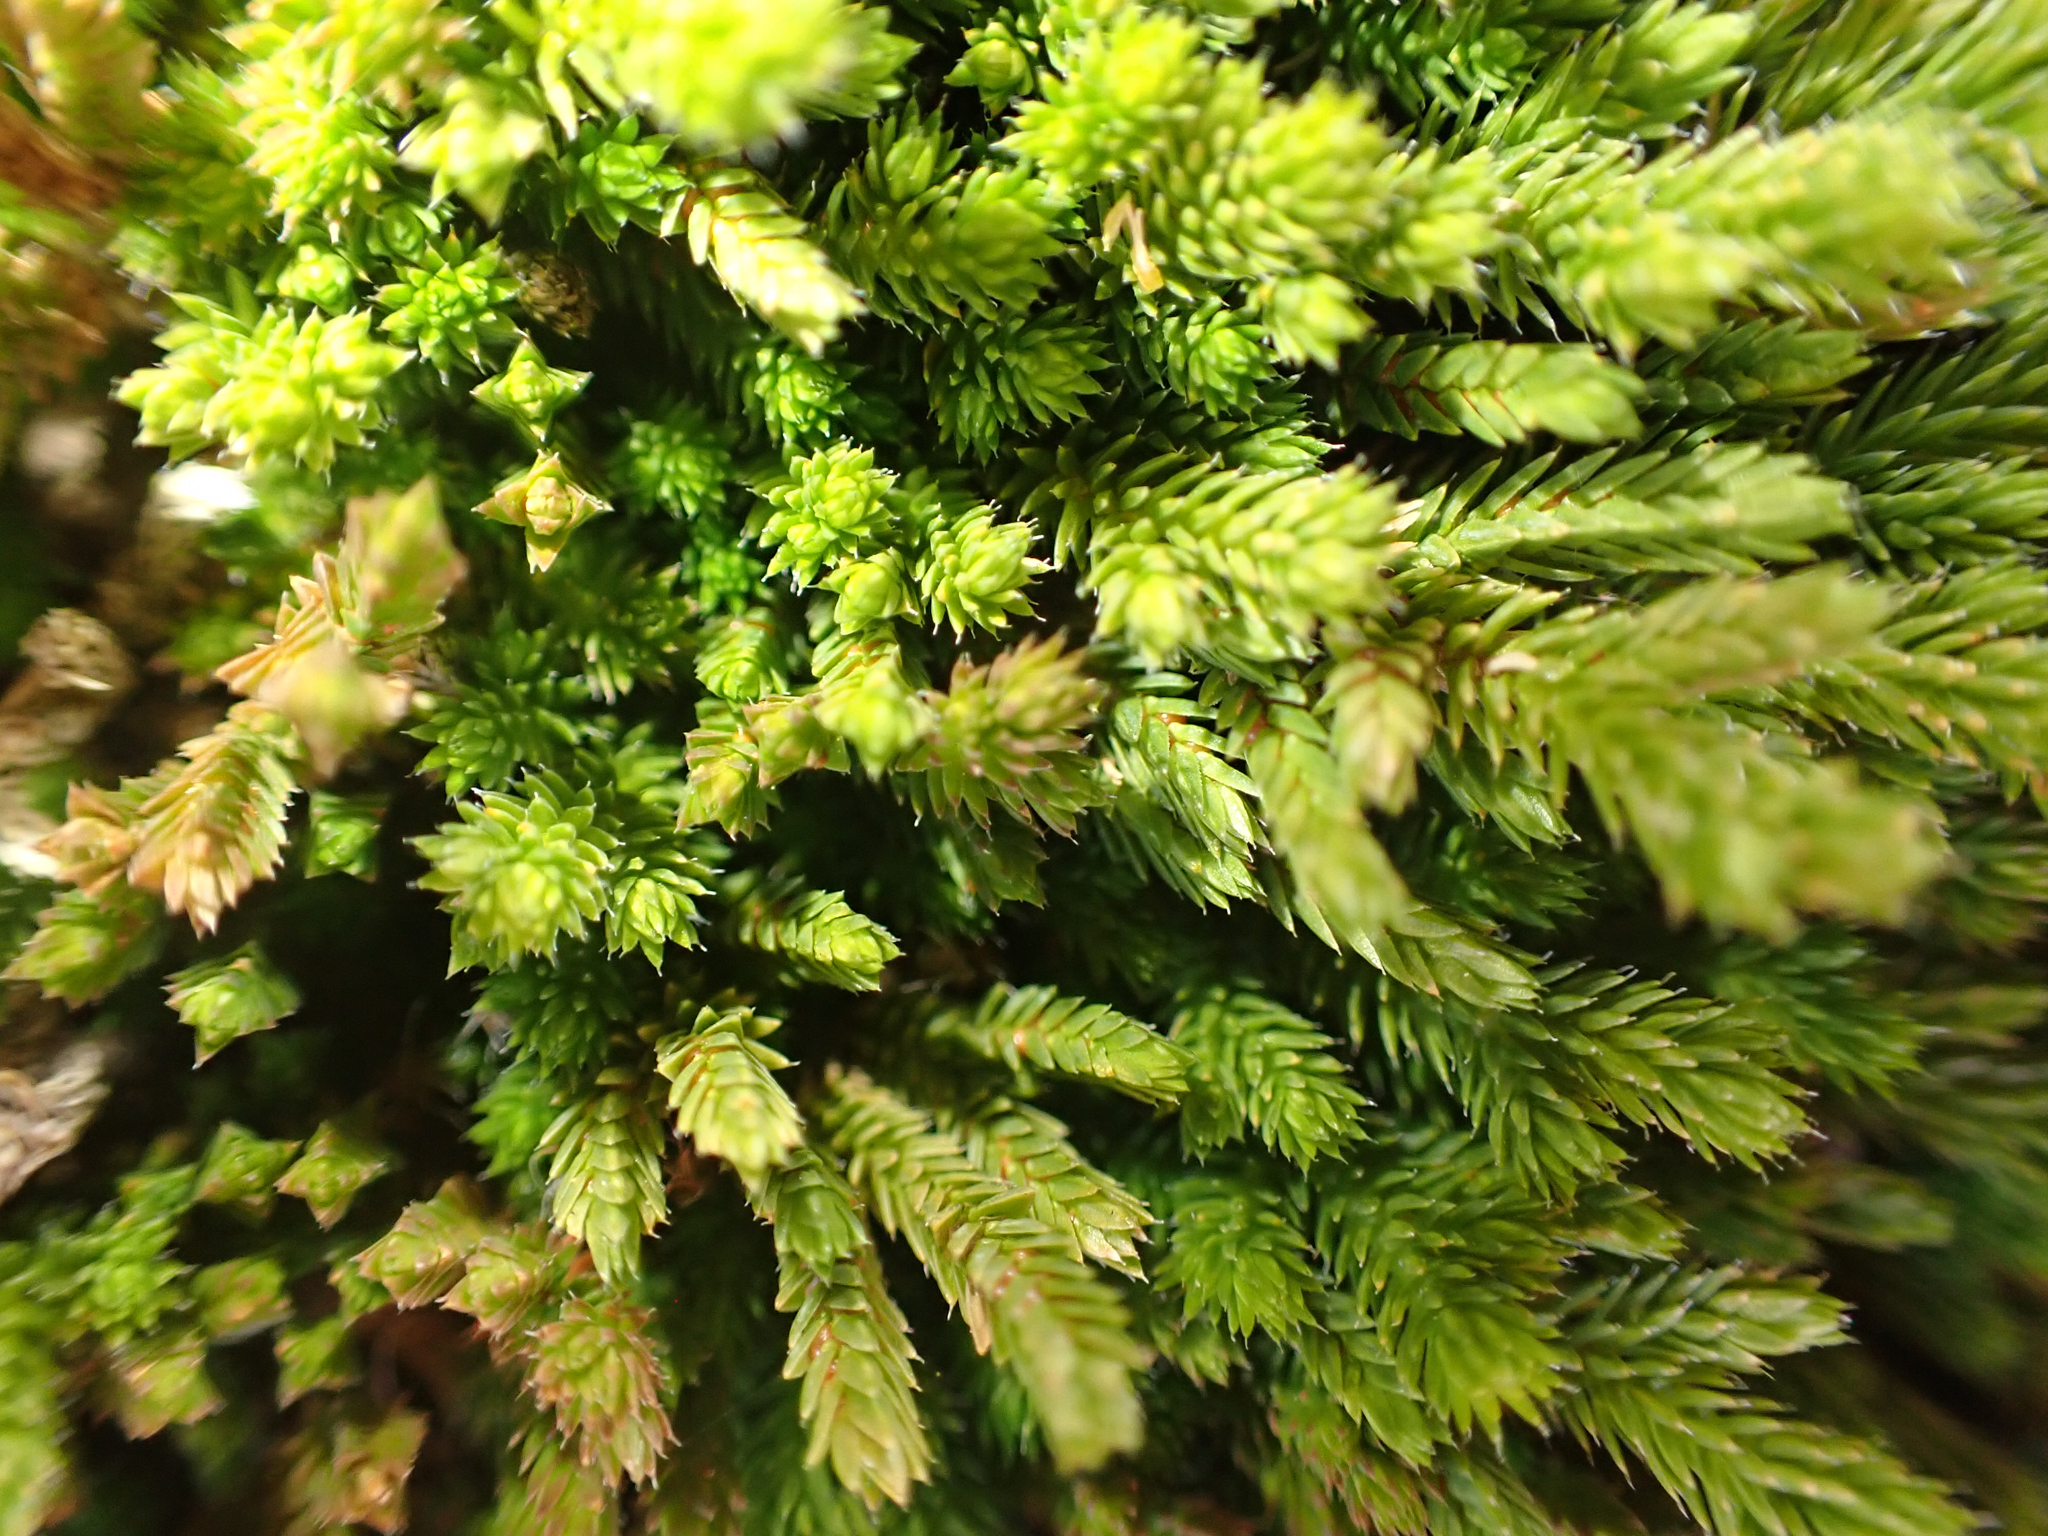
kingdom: Plantae
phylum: Tracheophyta
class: Lycopodiopsida
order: Selaginellales
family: Selaginellaceae
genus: Selaginella
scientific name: Selaginella wallacei
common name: Wallace's selaginella
